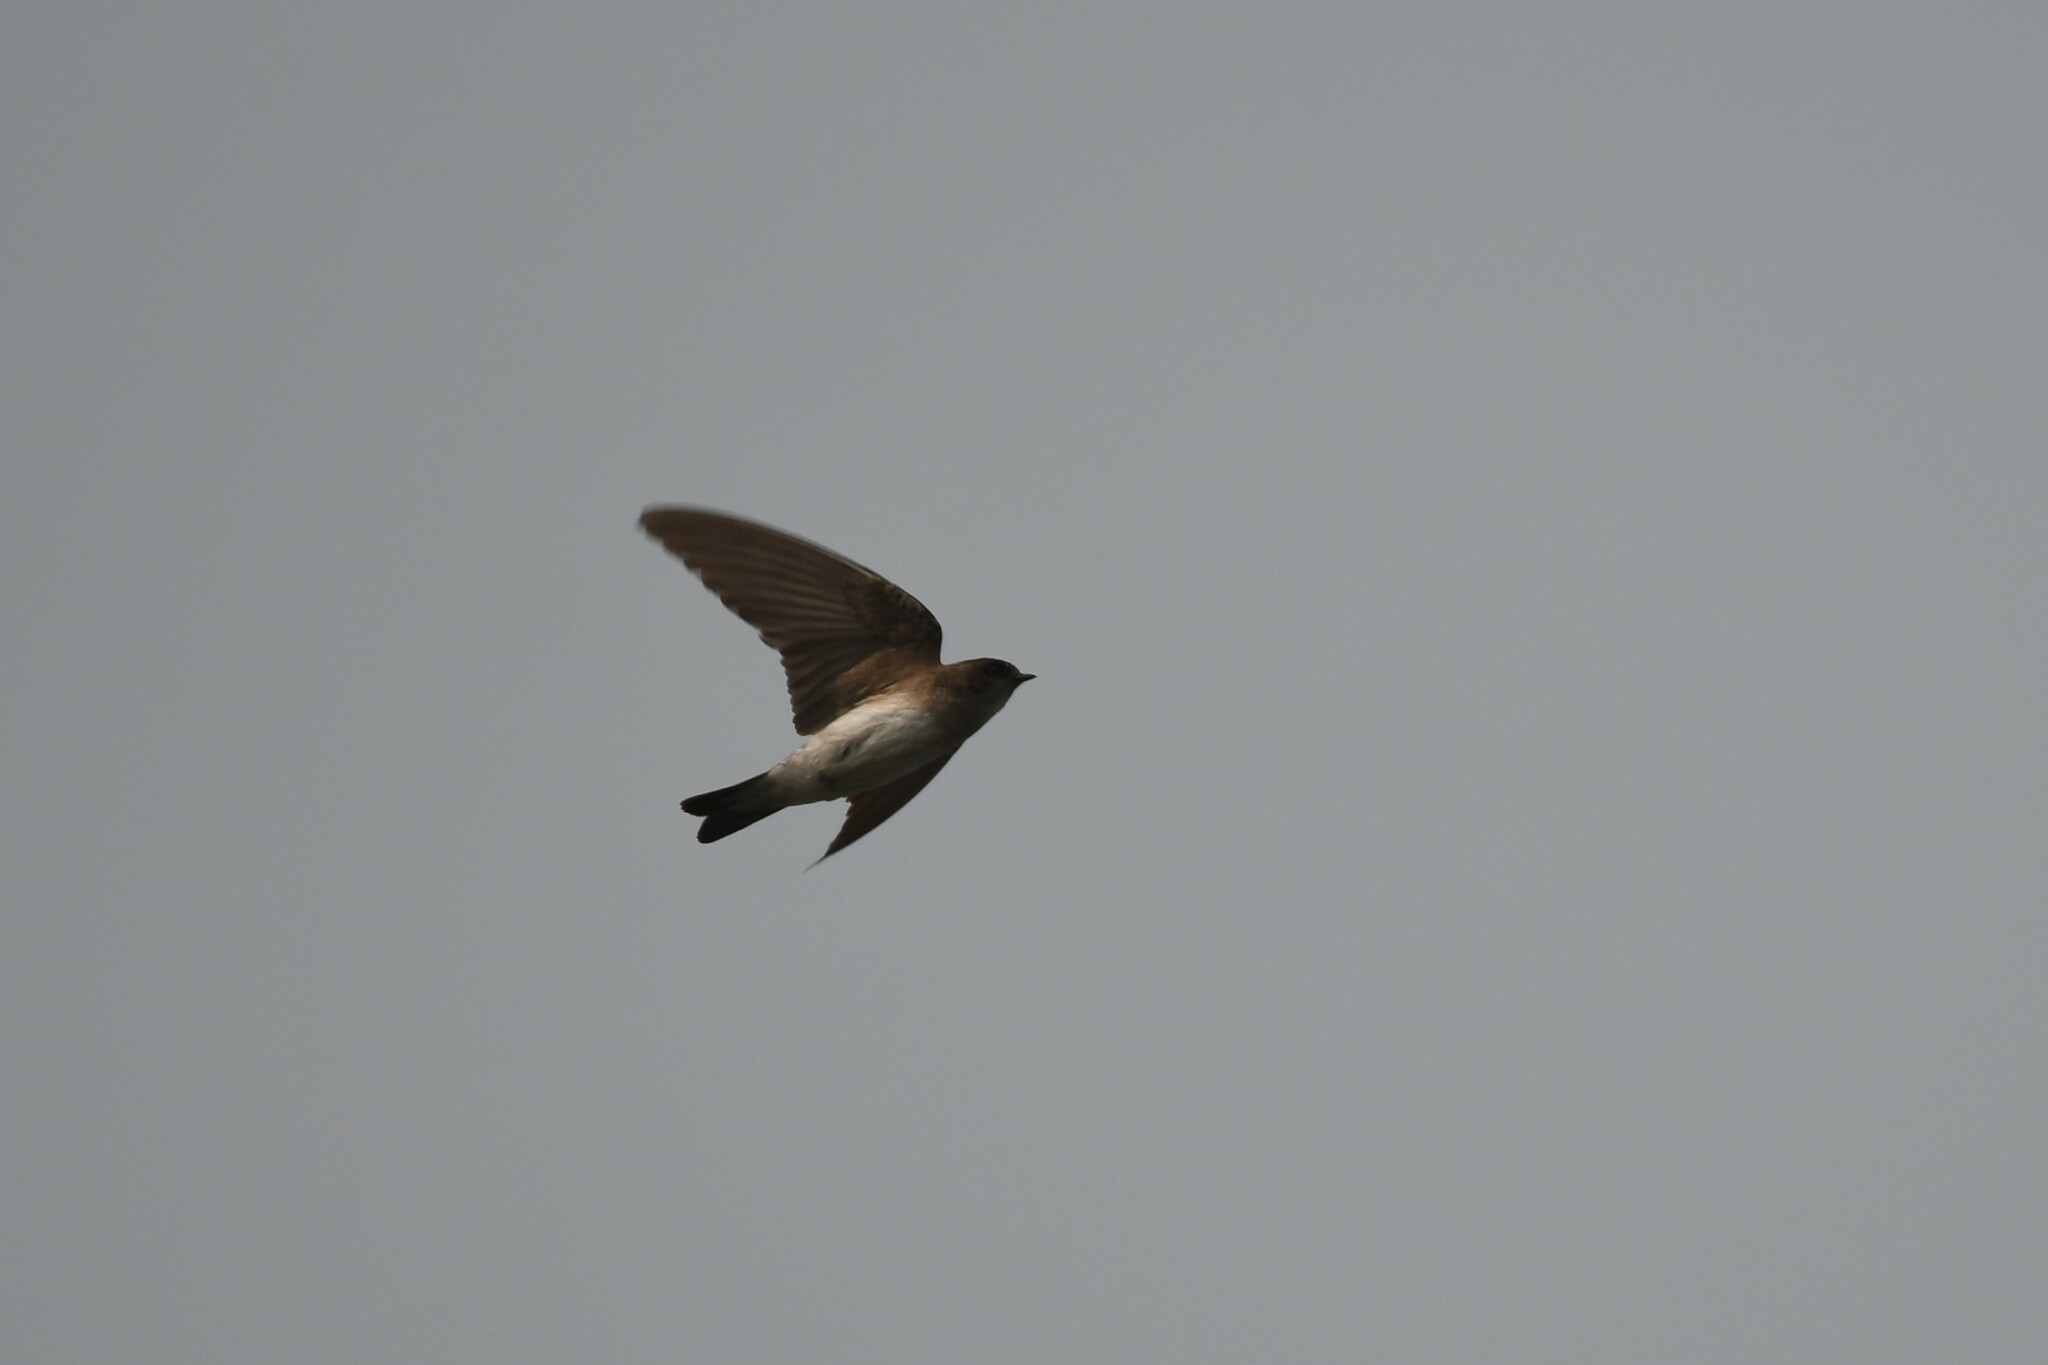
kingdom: Animalia
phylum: Chordata
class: Aves
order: Passeriformes
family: Hirundinidae
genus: Riparia
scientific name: Riparia chinensis
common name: Gray-throated martin
